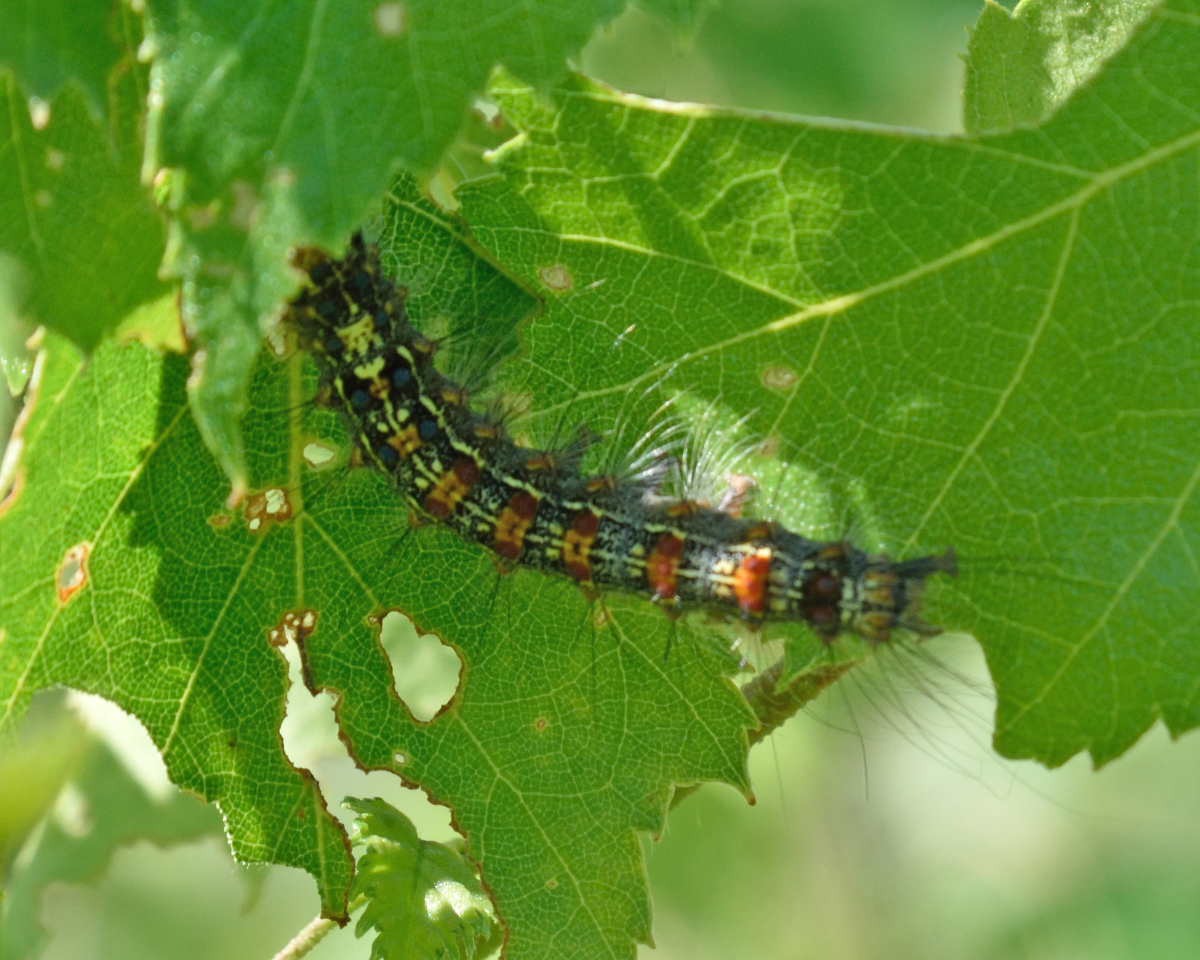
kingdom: Animalia
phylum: Arthropoda
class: Insecta
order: Lepidoptera
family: Erebidae
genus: Lymantria
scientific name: Lymantria dispar
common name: Gypsy moth
